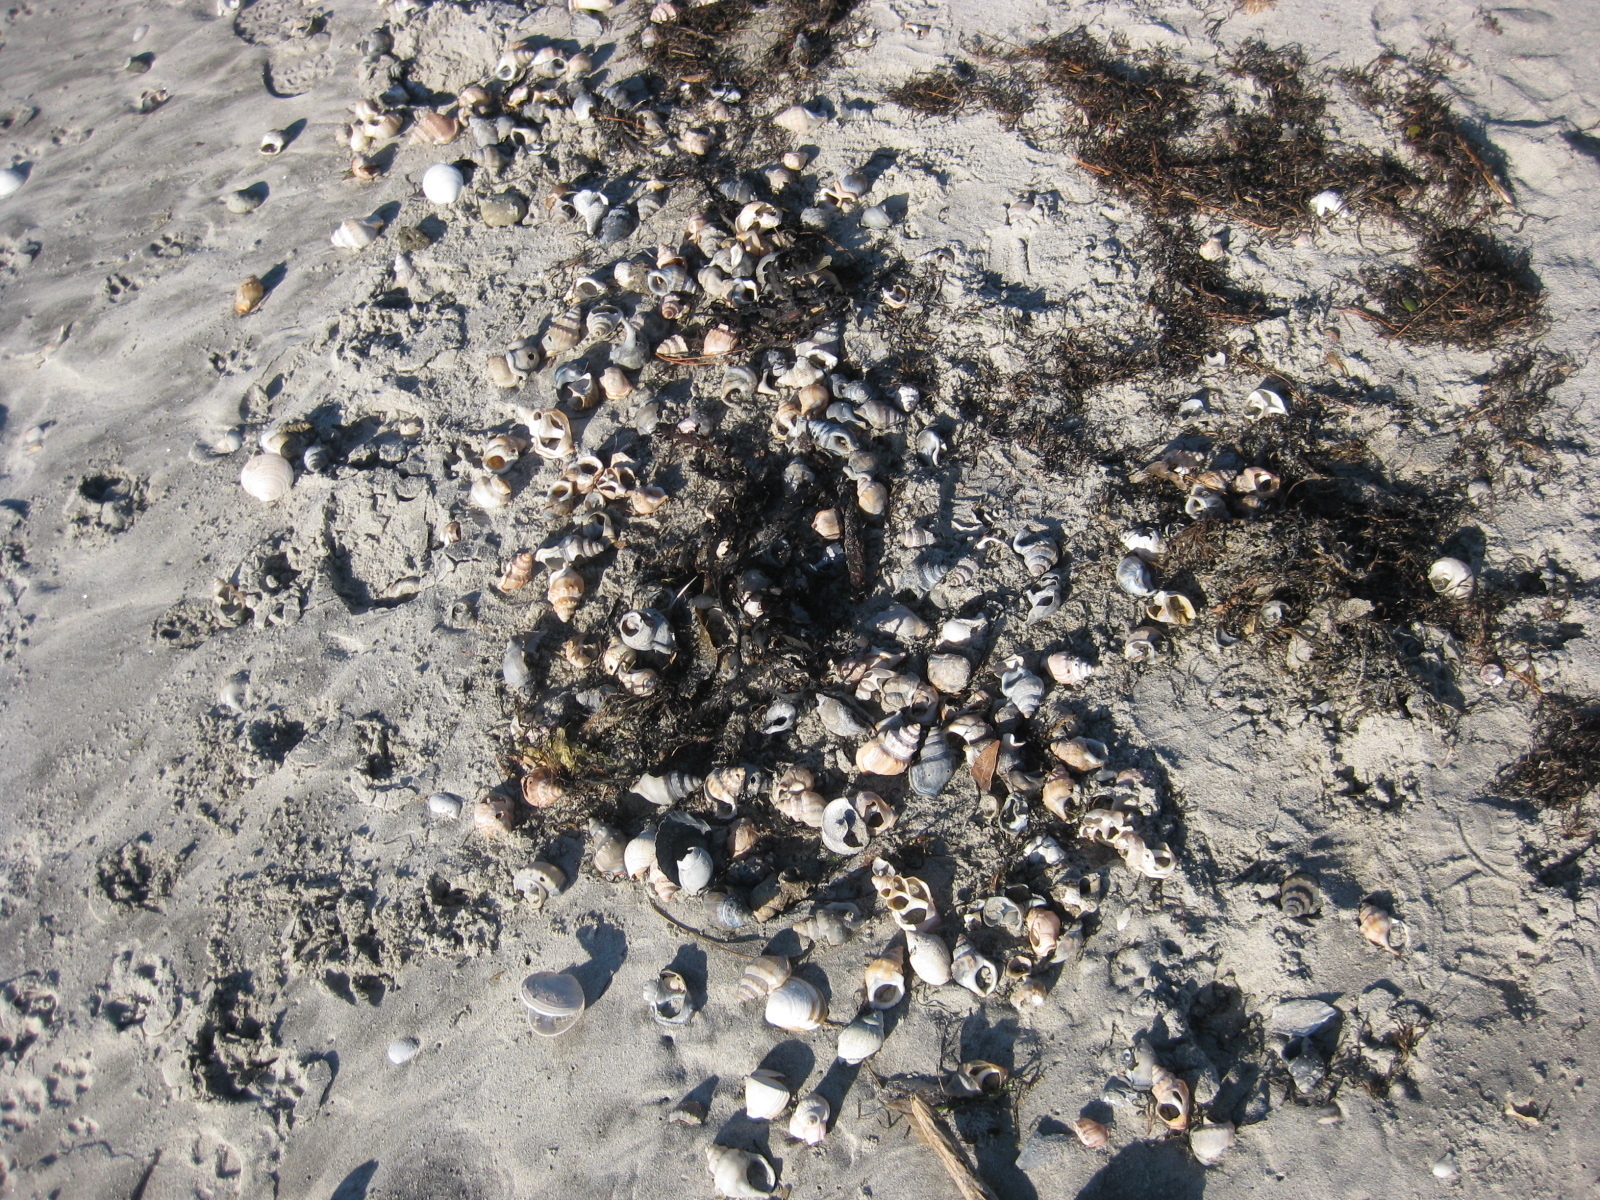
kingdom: Animalia
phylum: Mollusca
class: Gastropoda
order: Littorinimorpha
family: Struthiolariidae
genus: Struthiolaria
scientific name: Struthiolaria papulosa
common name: Large ostrich foot
